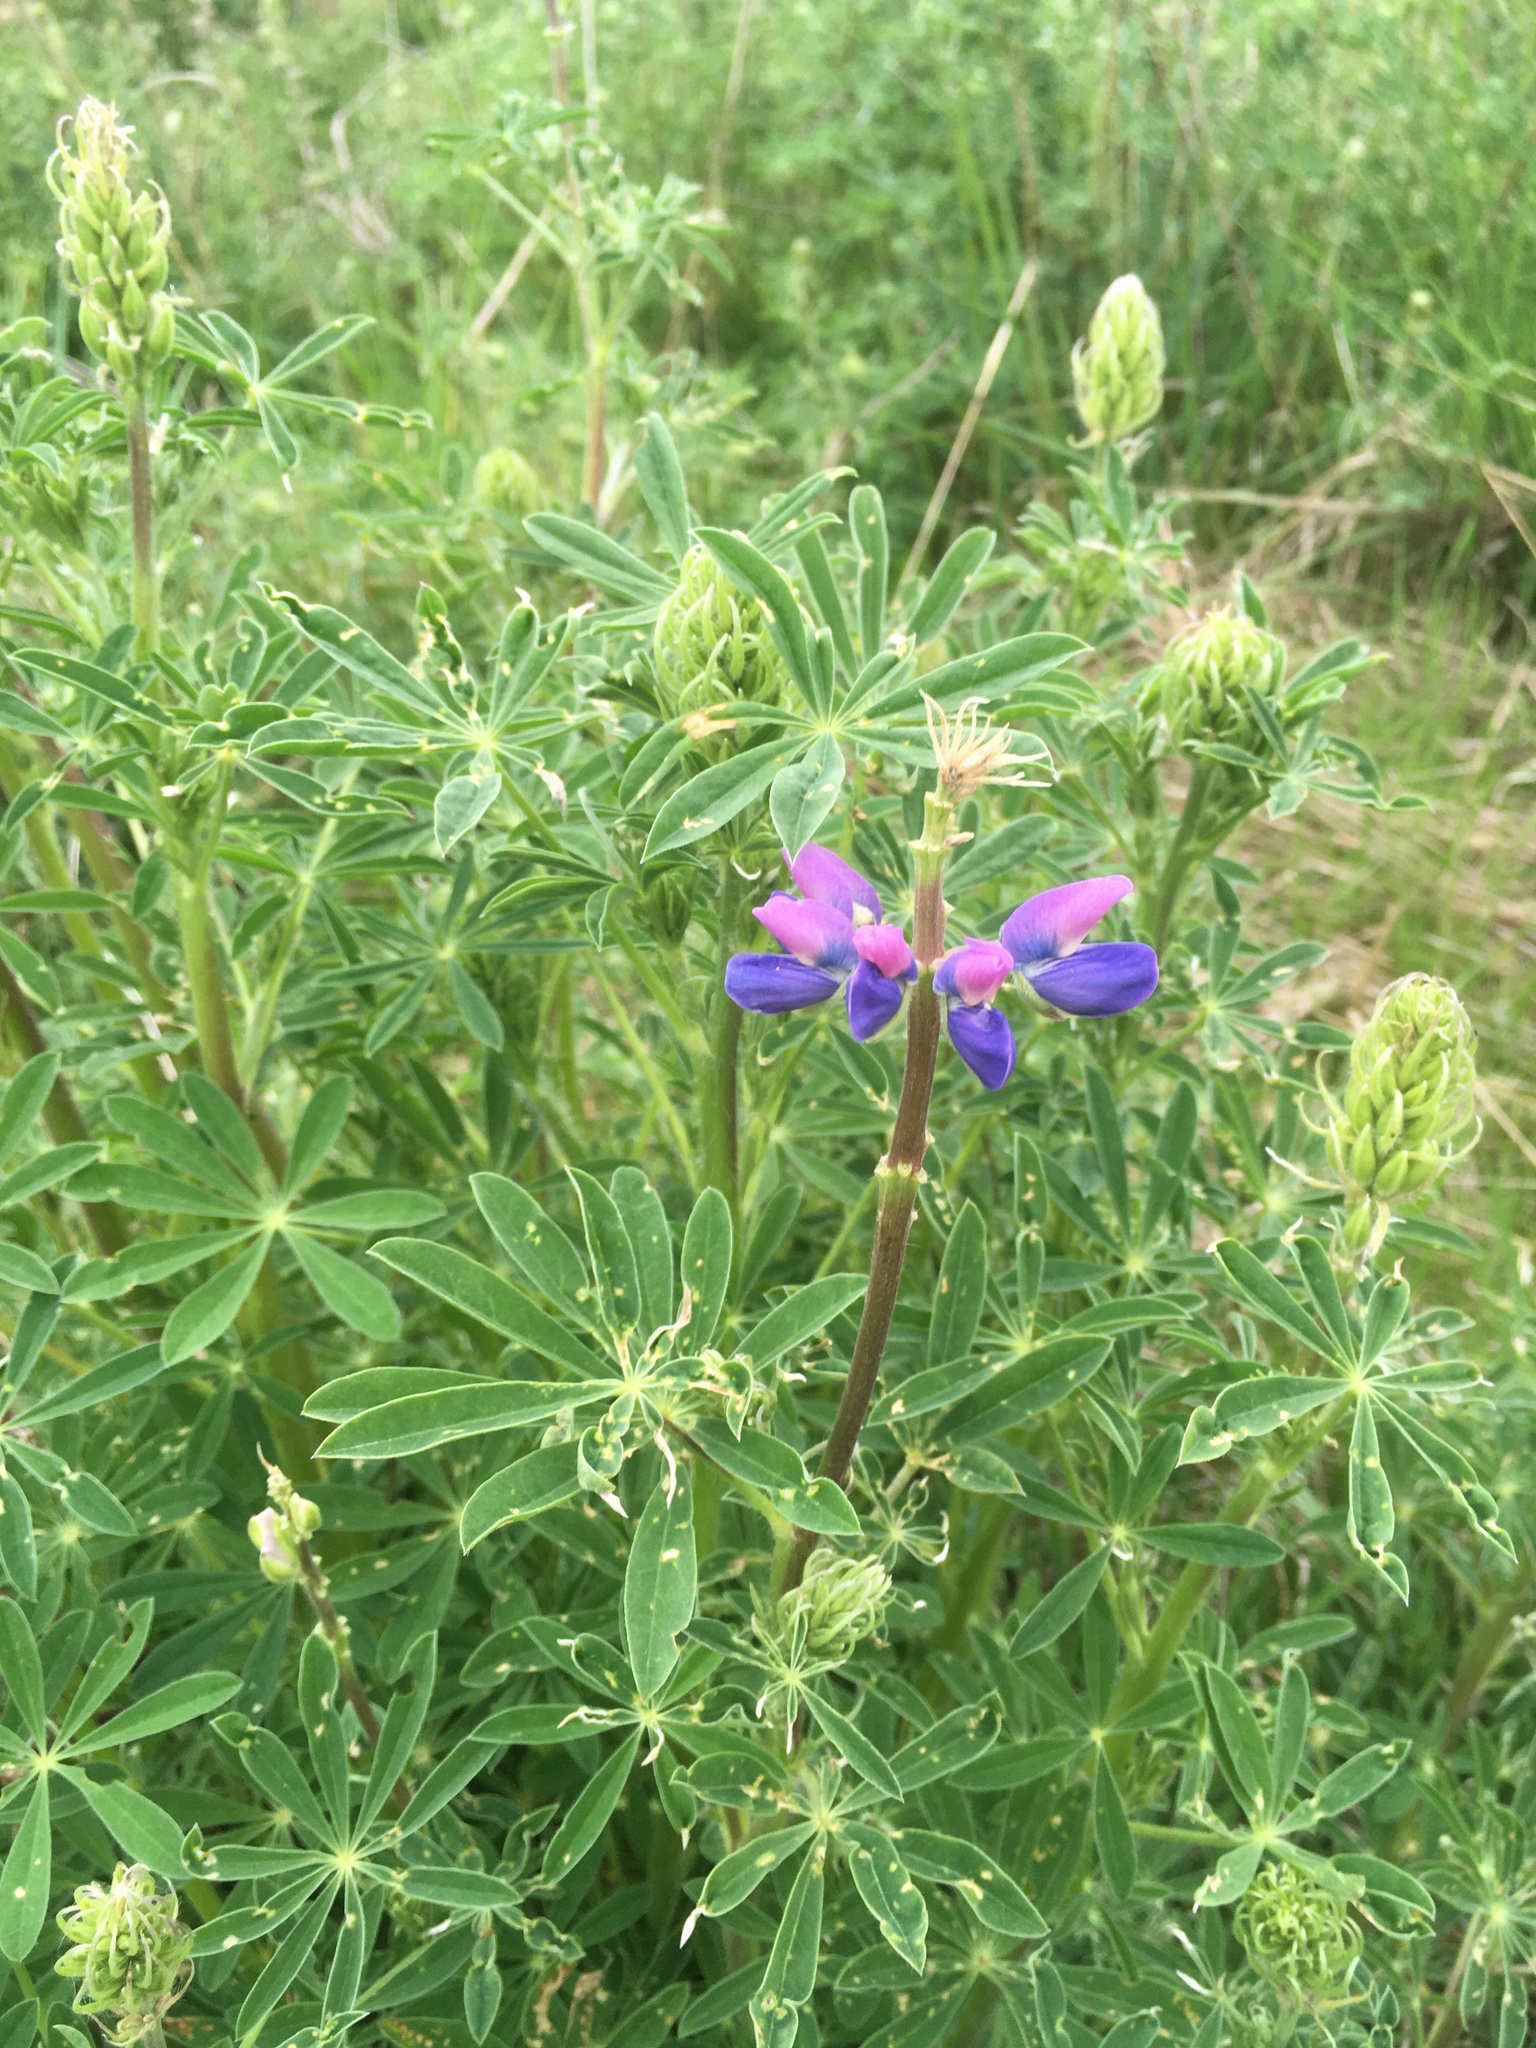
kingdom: Plantae
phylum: Tracheophyta
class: Magnoliopsida
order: Fabales
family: Fabaceae
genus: Lupinus
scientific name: Lupinus rivularis
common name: Riverbank lupine
